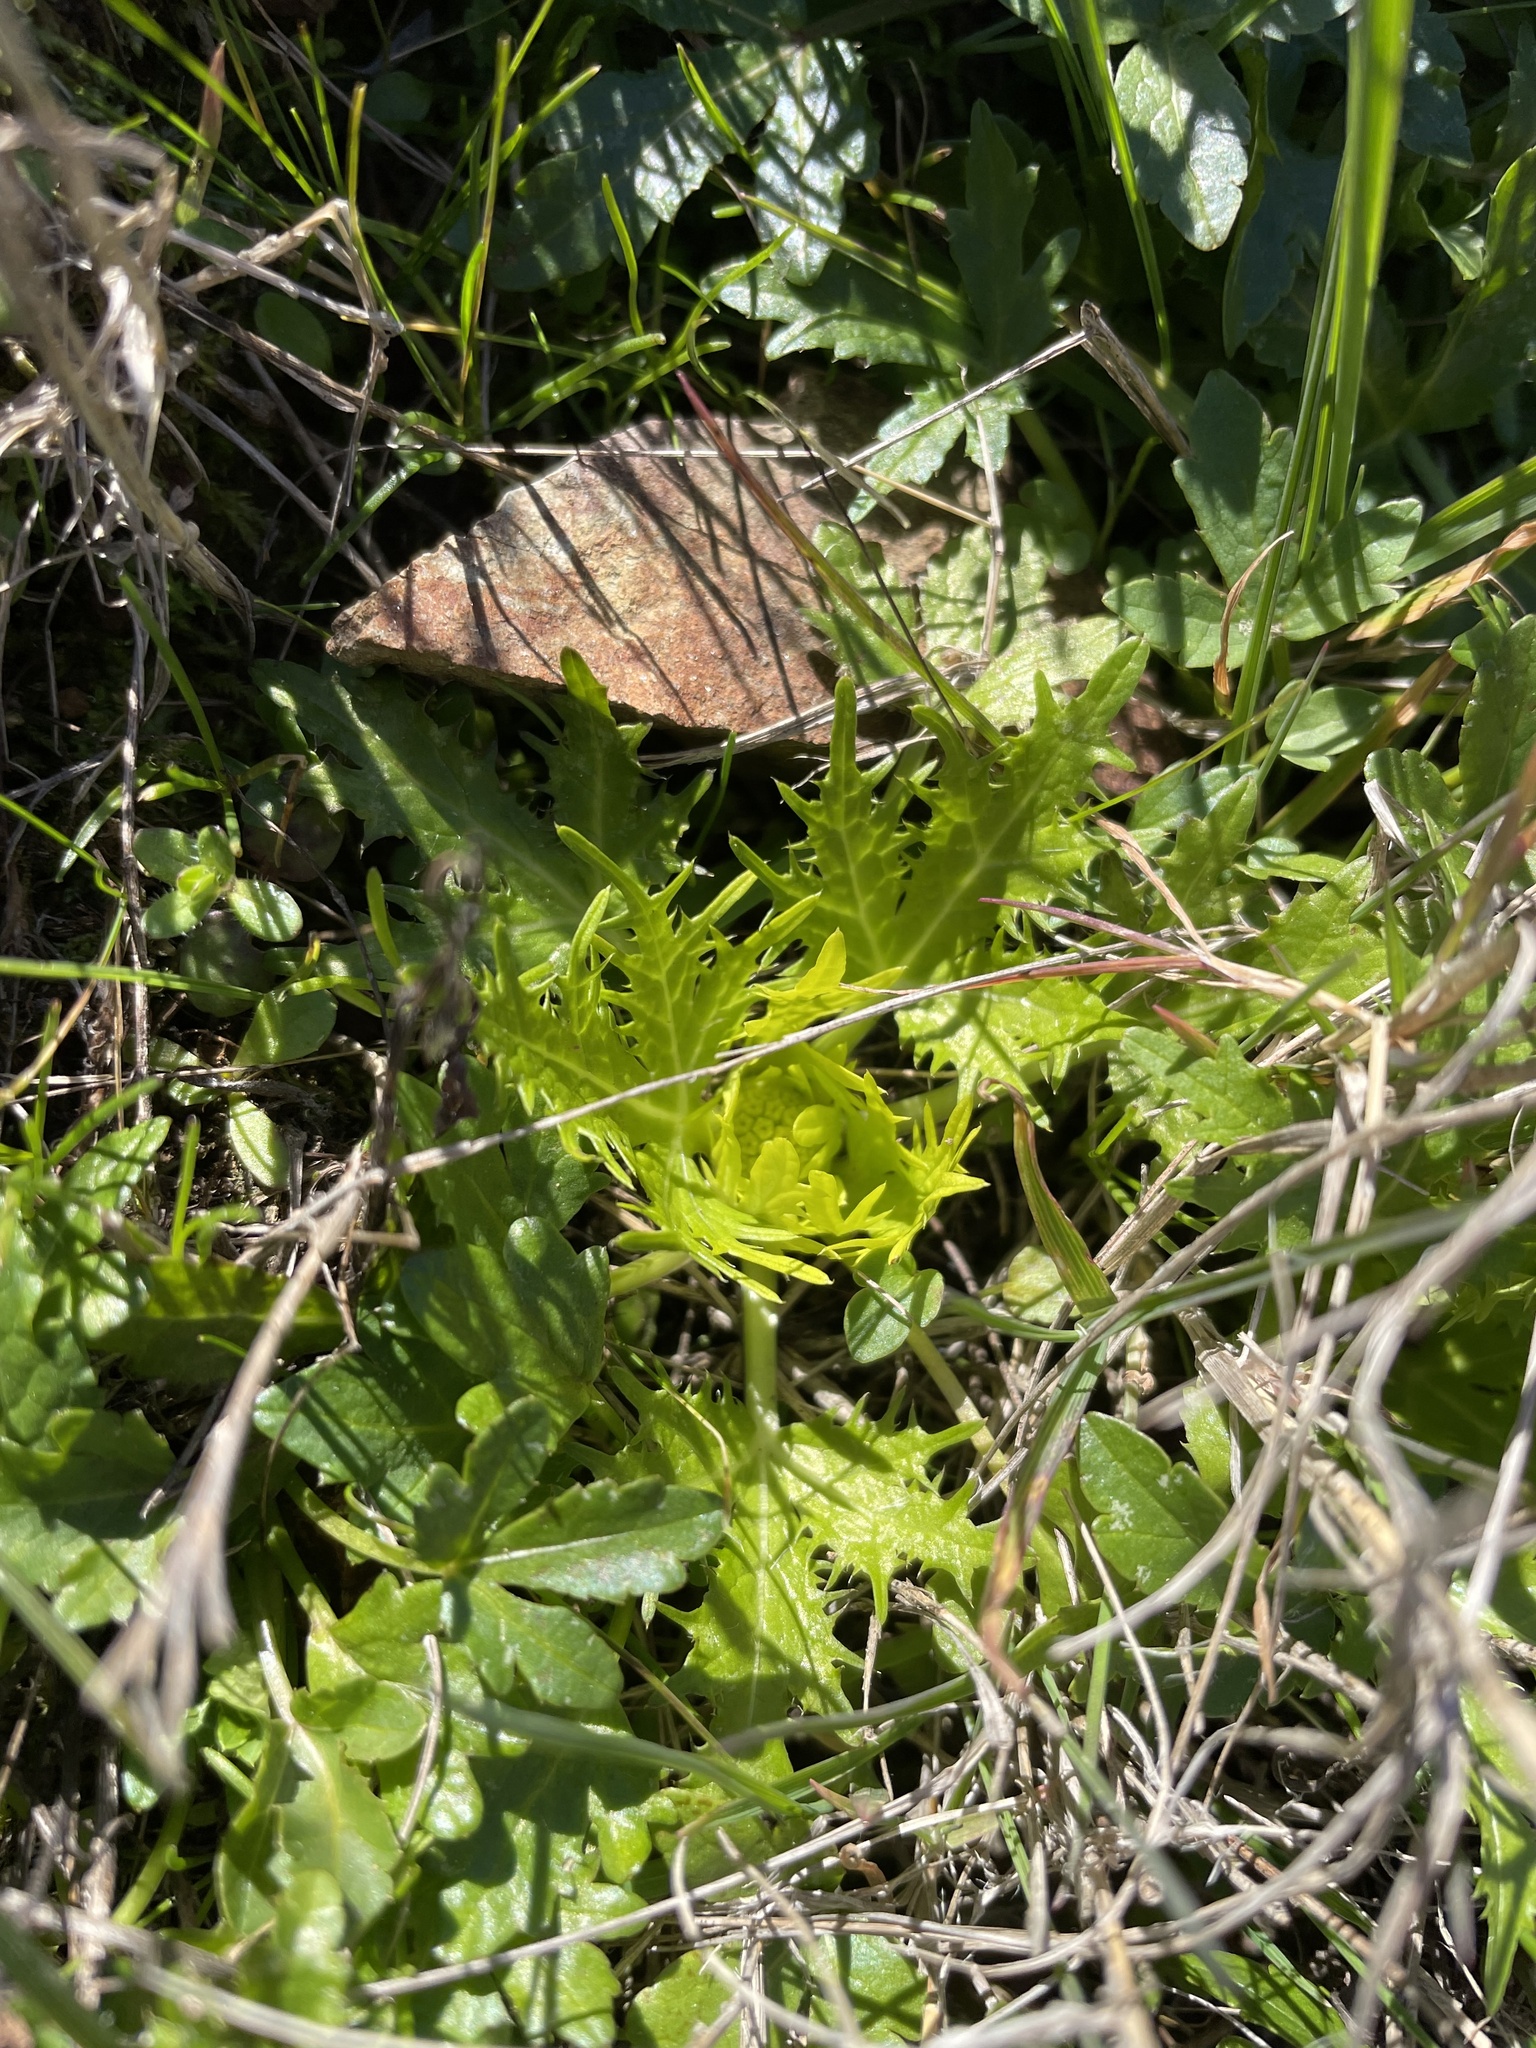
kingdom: Plantae
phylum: Tracheophyta
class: Magnoliopsida
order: Apiales
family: Apiaceae
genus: Sanicula
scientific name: Sanicula arctopoides
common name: Footsteps-of-spring
